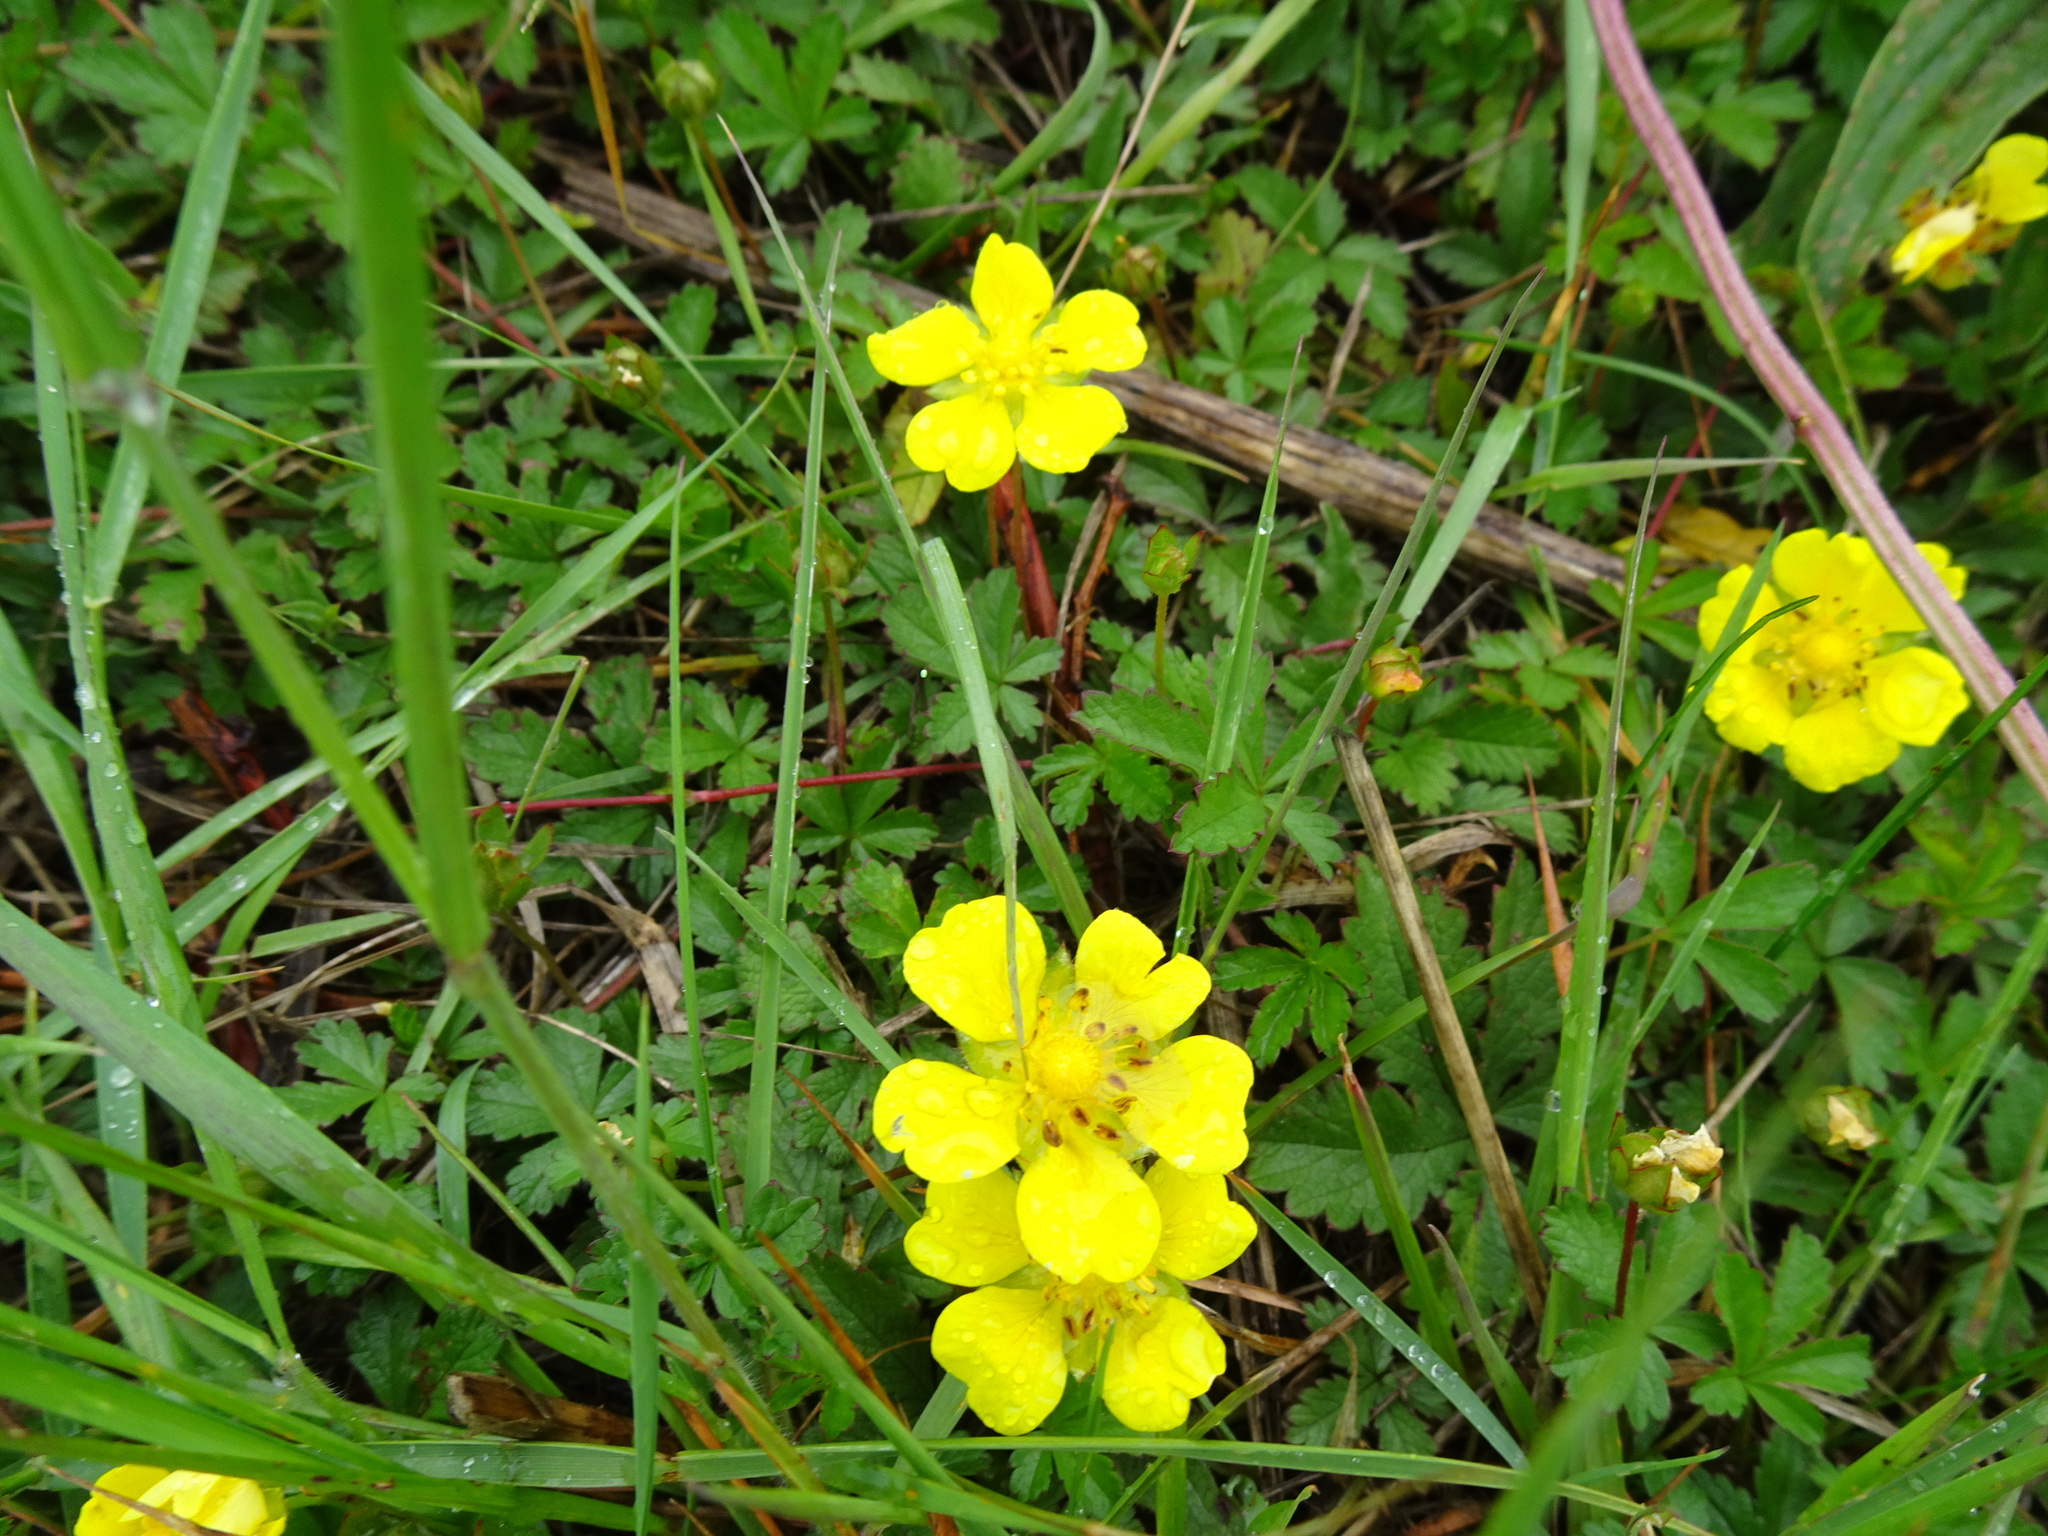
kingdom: Plantae
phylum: Tracheophyta
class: Magnoliopsida
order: Rosales
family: Rosaceae
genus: Potentilla
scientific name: Potentilla reptans
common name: Creeping cinquefoil
